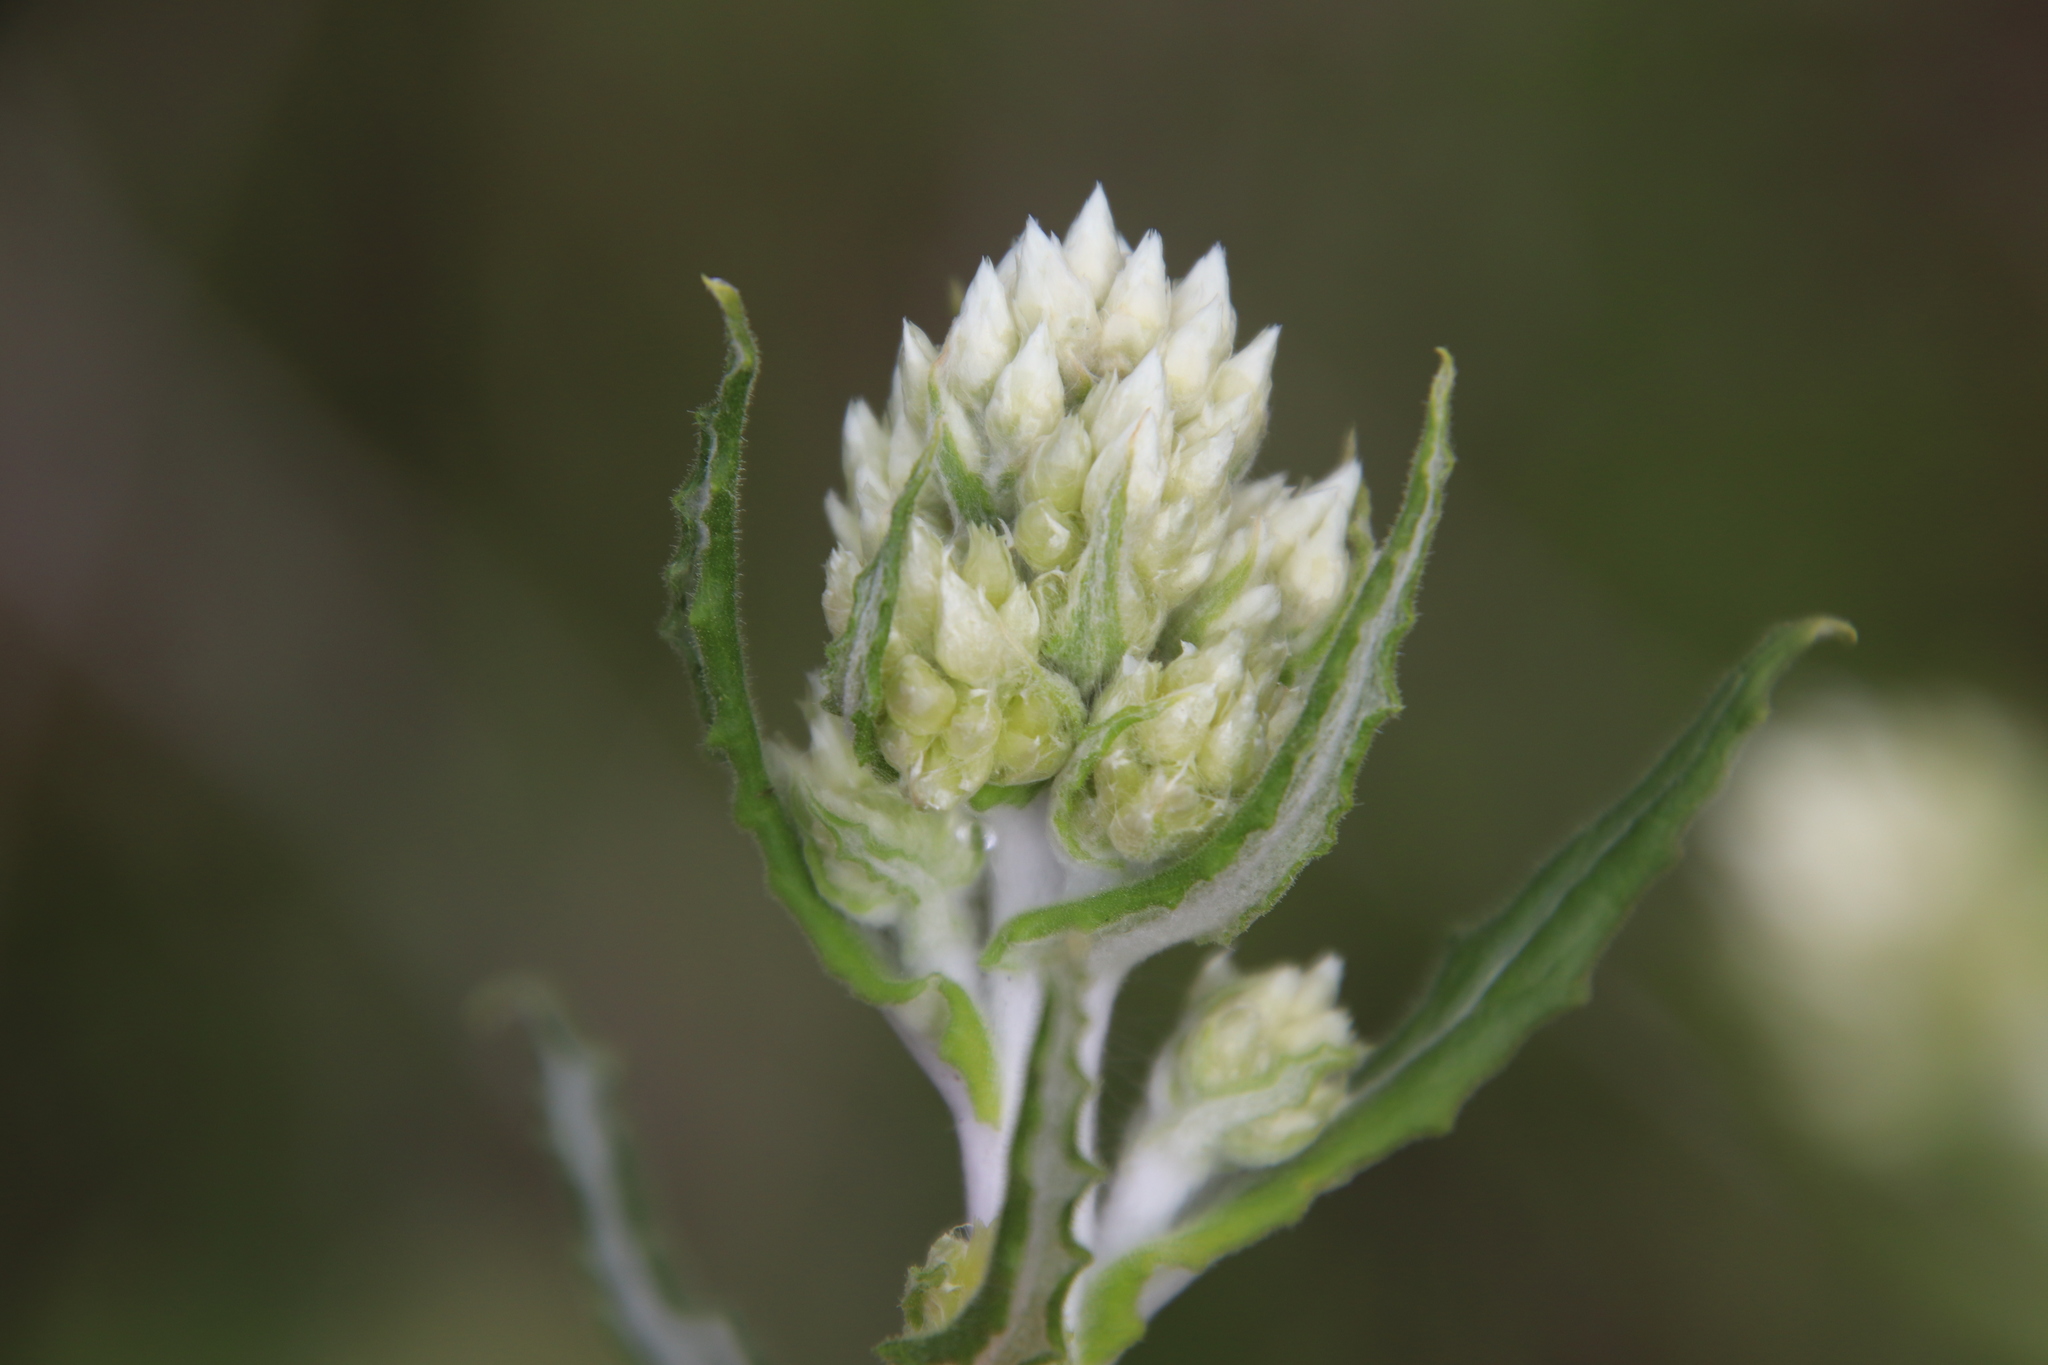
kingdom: Plantae
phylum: Tracheophyta
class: Magnoliopsida
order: Asterales
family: Asteraceae
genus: Pseudognaphalium
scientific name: Pseudognaphalium biolettii
